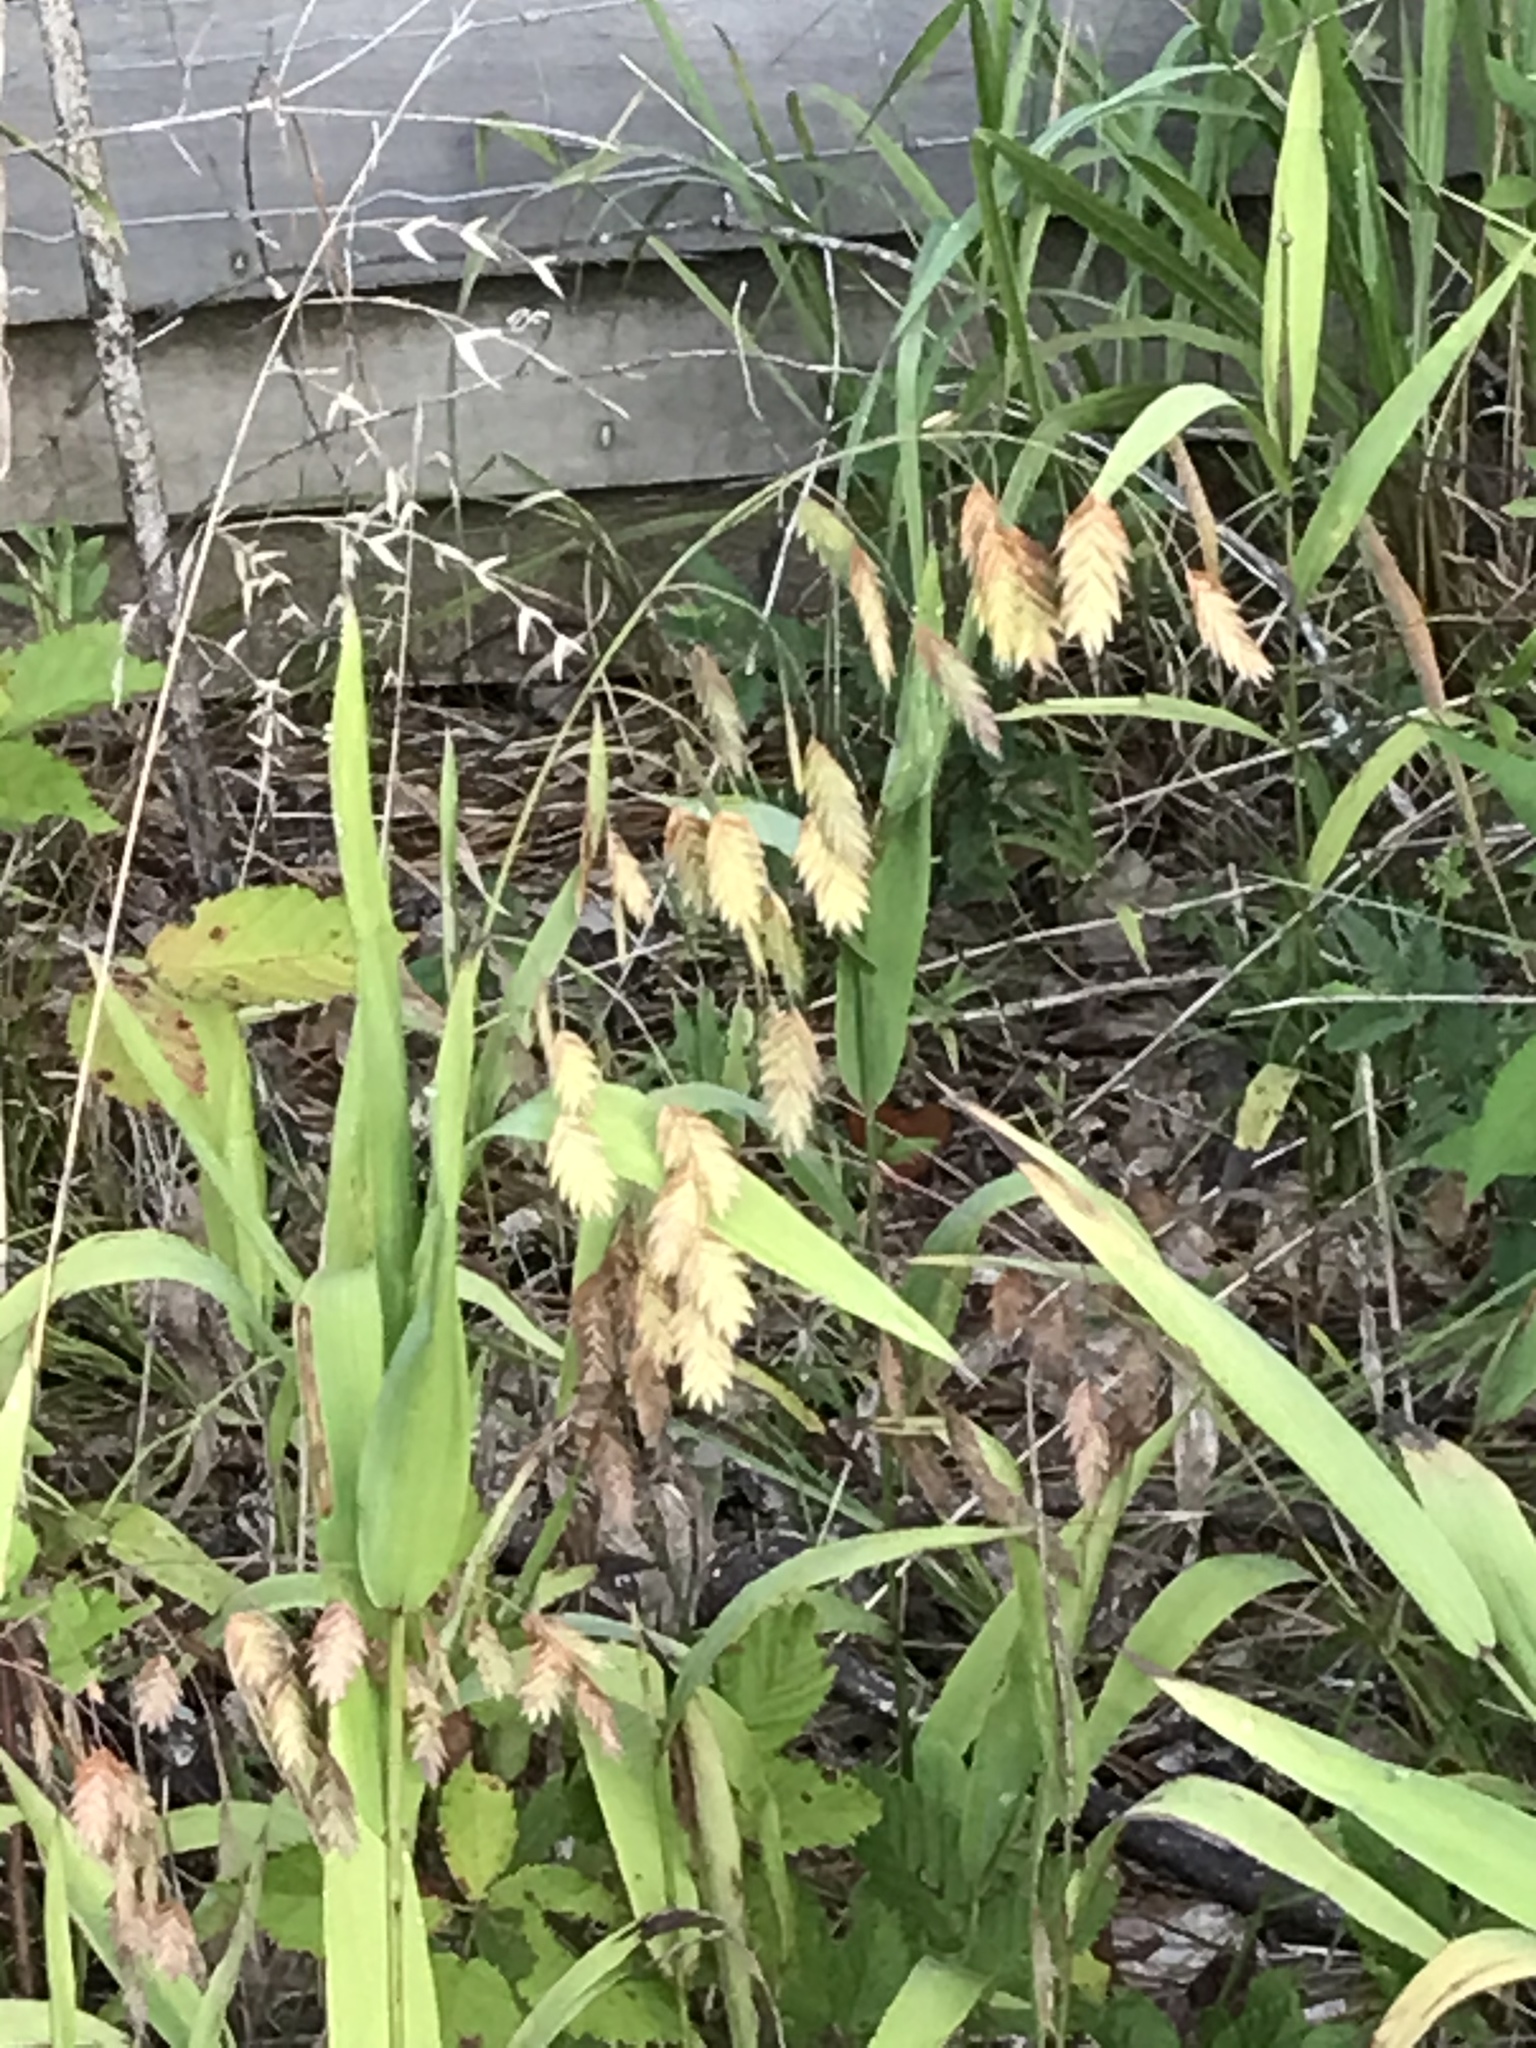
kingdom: Plantae
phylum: Tracheophyta
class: Liliopsida
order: Poales
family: Poaceae
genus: Chasmanthium
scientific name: Chasmanthium latifolium
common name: Broad-leaved chasmanthium
